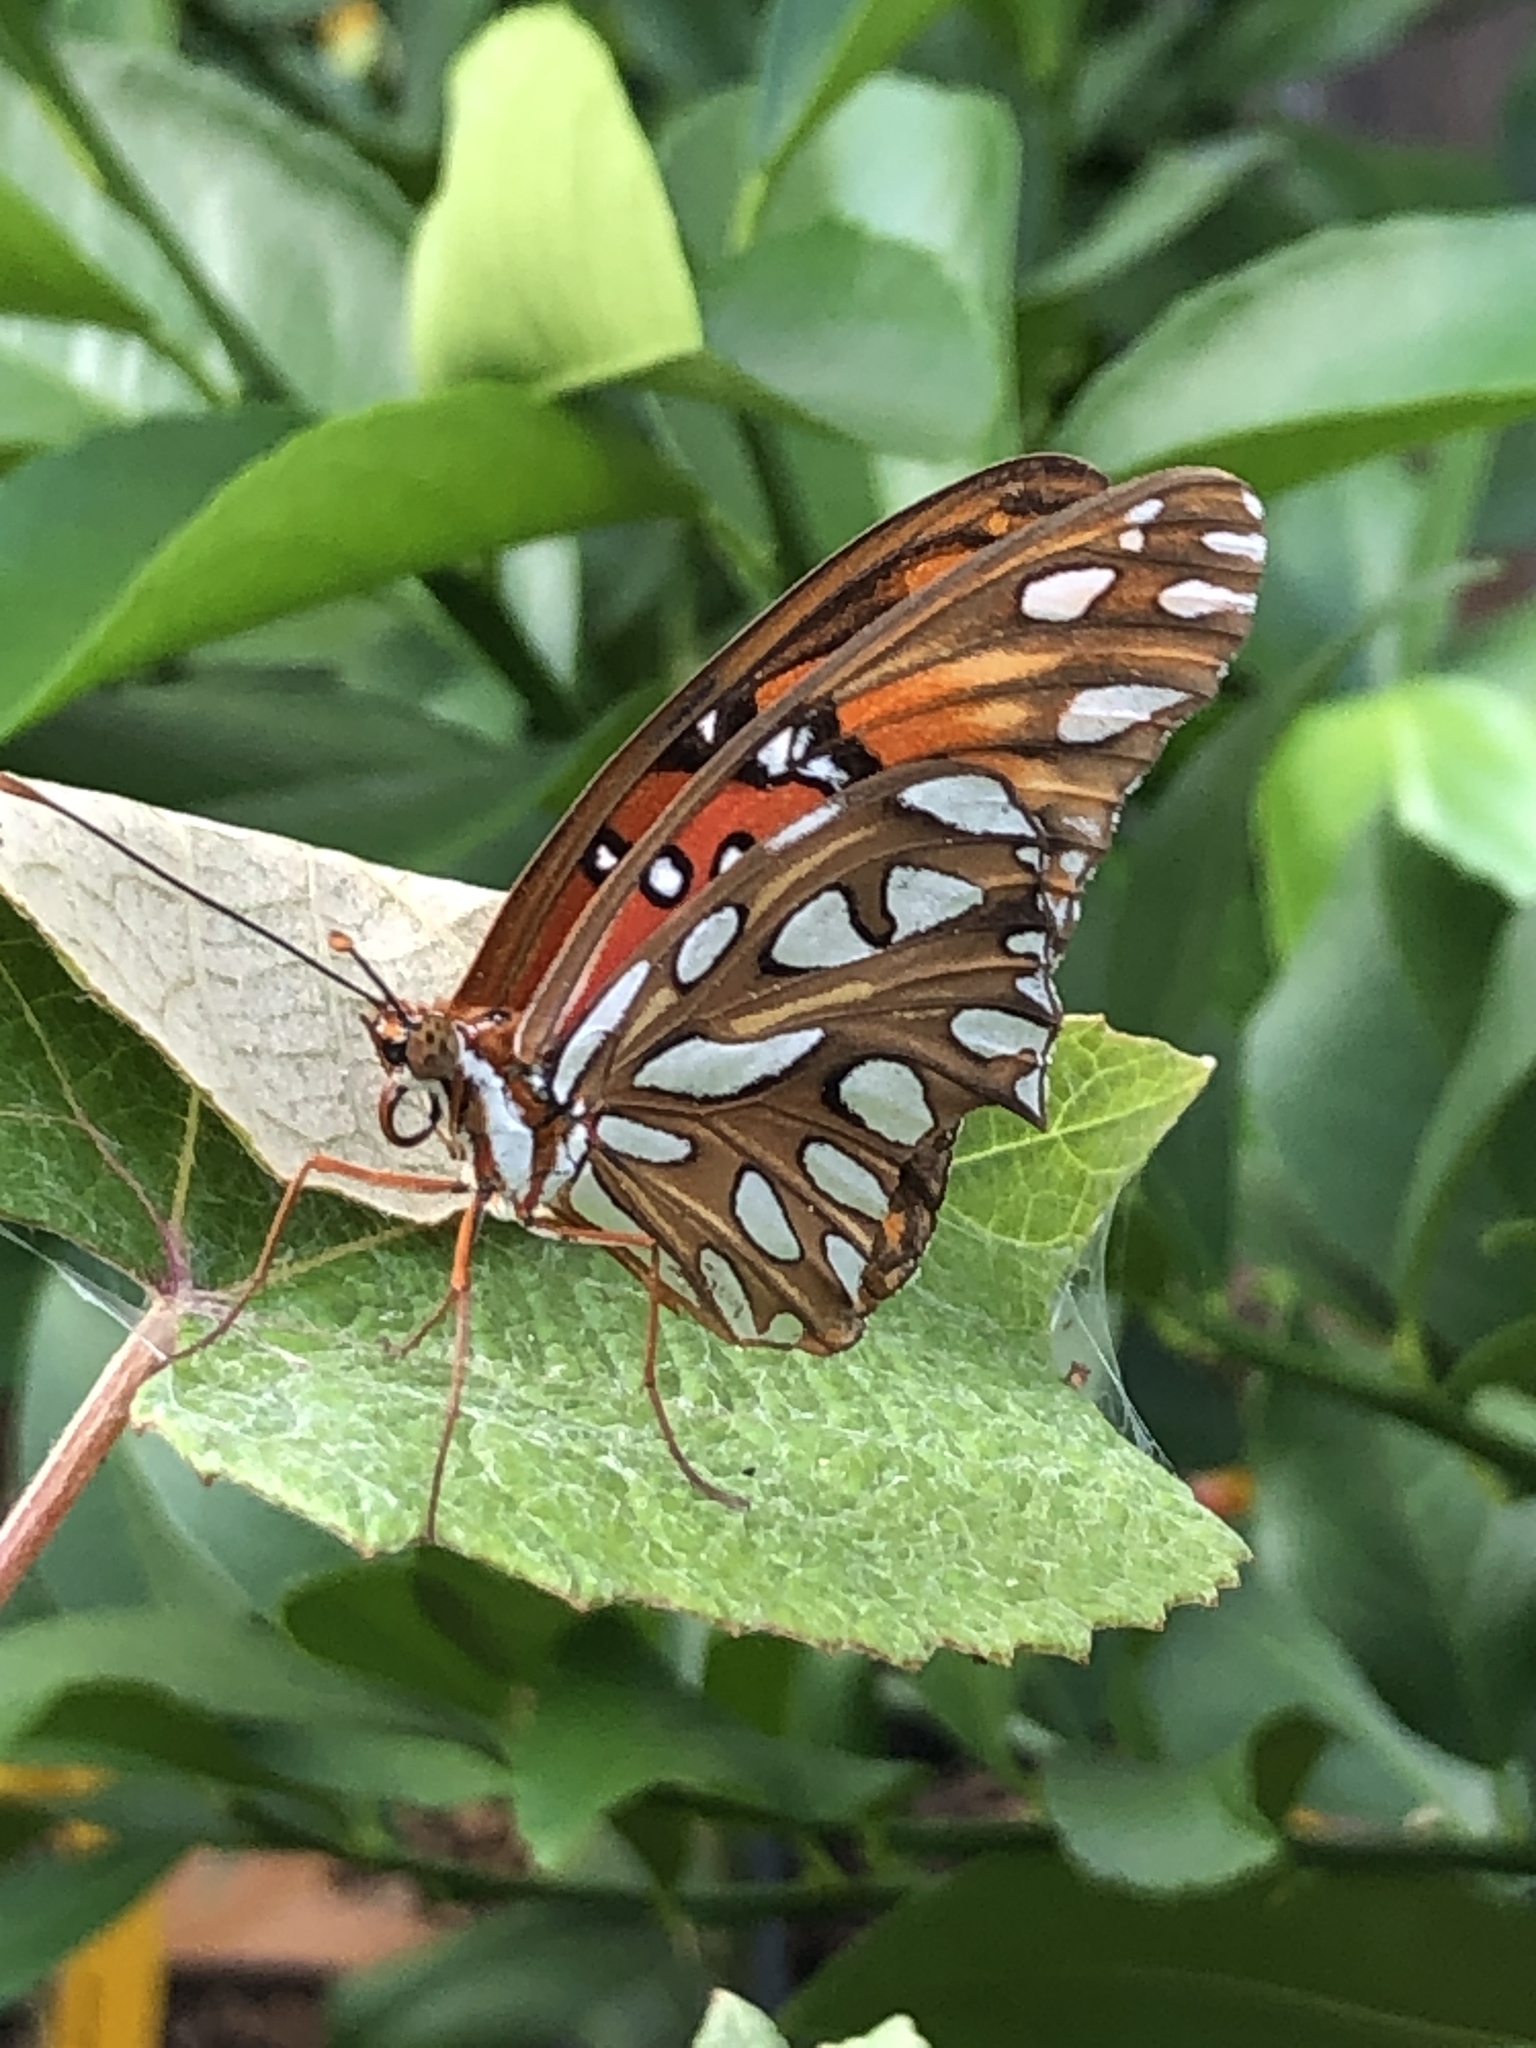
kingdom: Animalia
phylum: Arthropoda
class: Insecta
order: Lepidoptera
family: Nymphalidae
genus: Dione
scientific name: Dione vanillae
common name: Gulf fritillary
